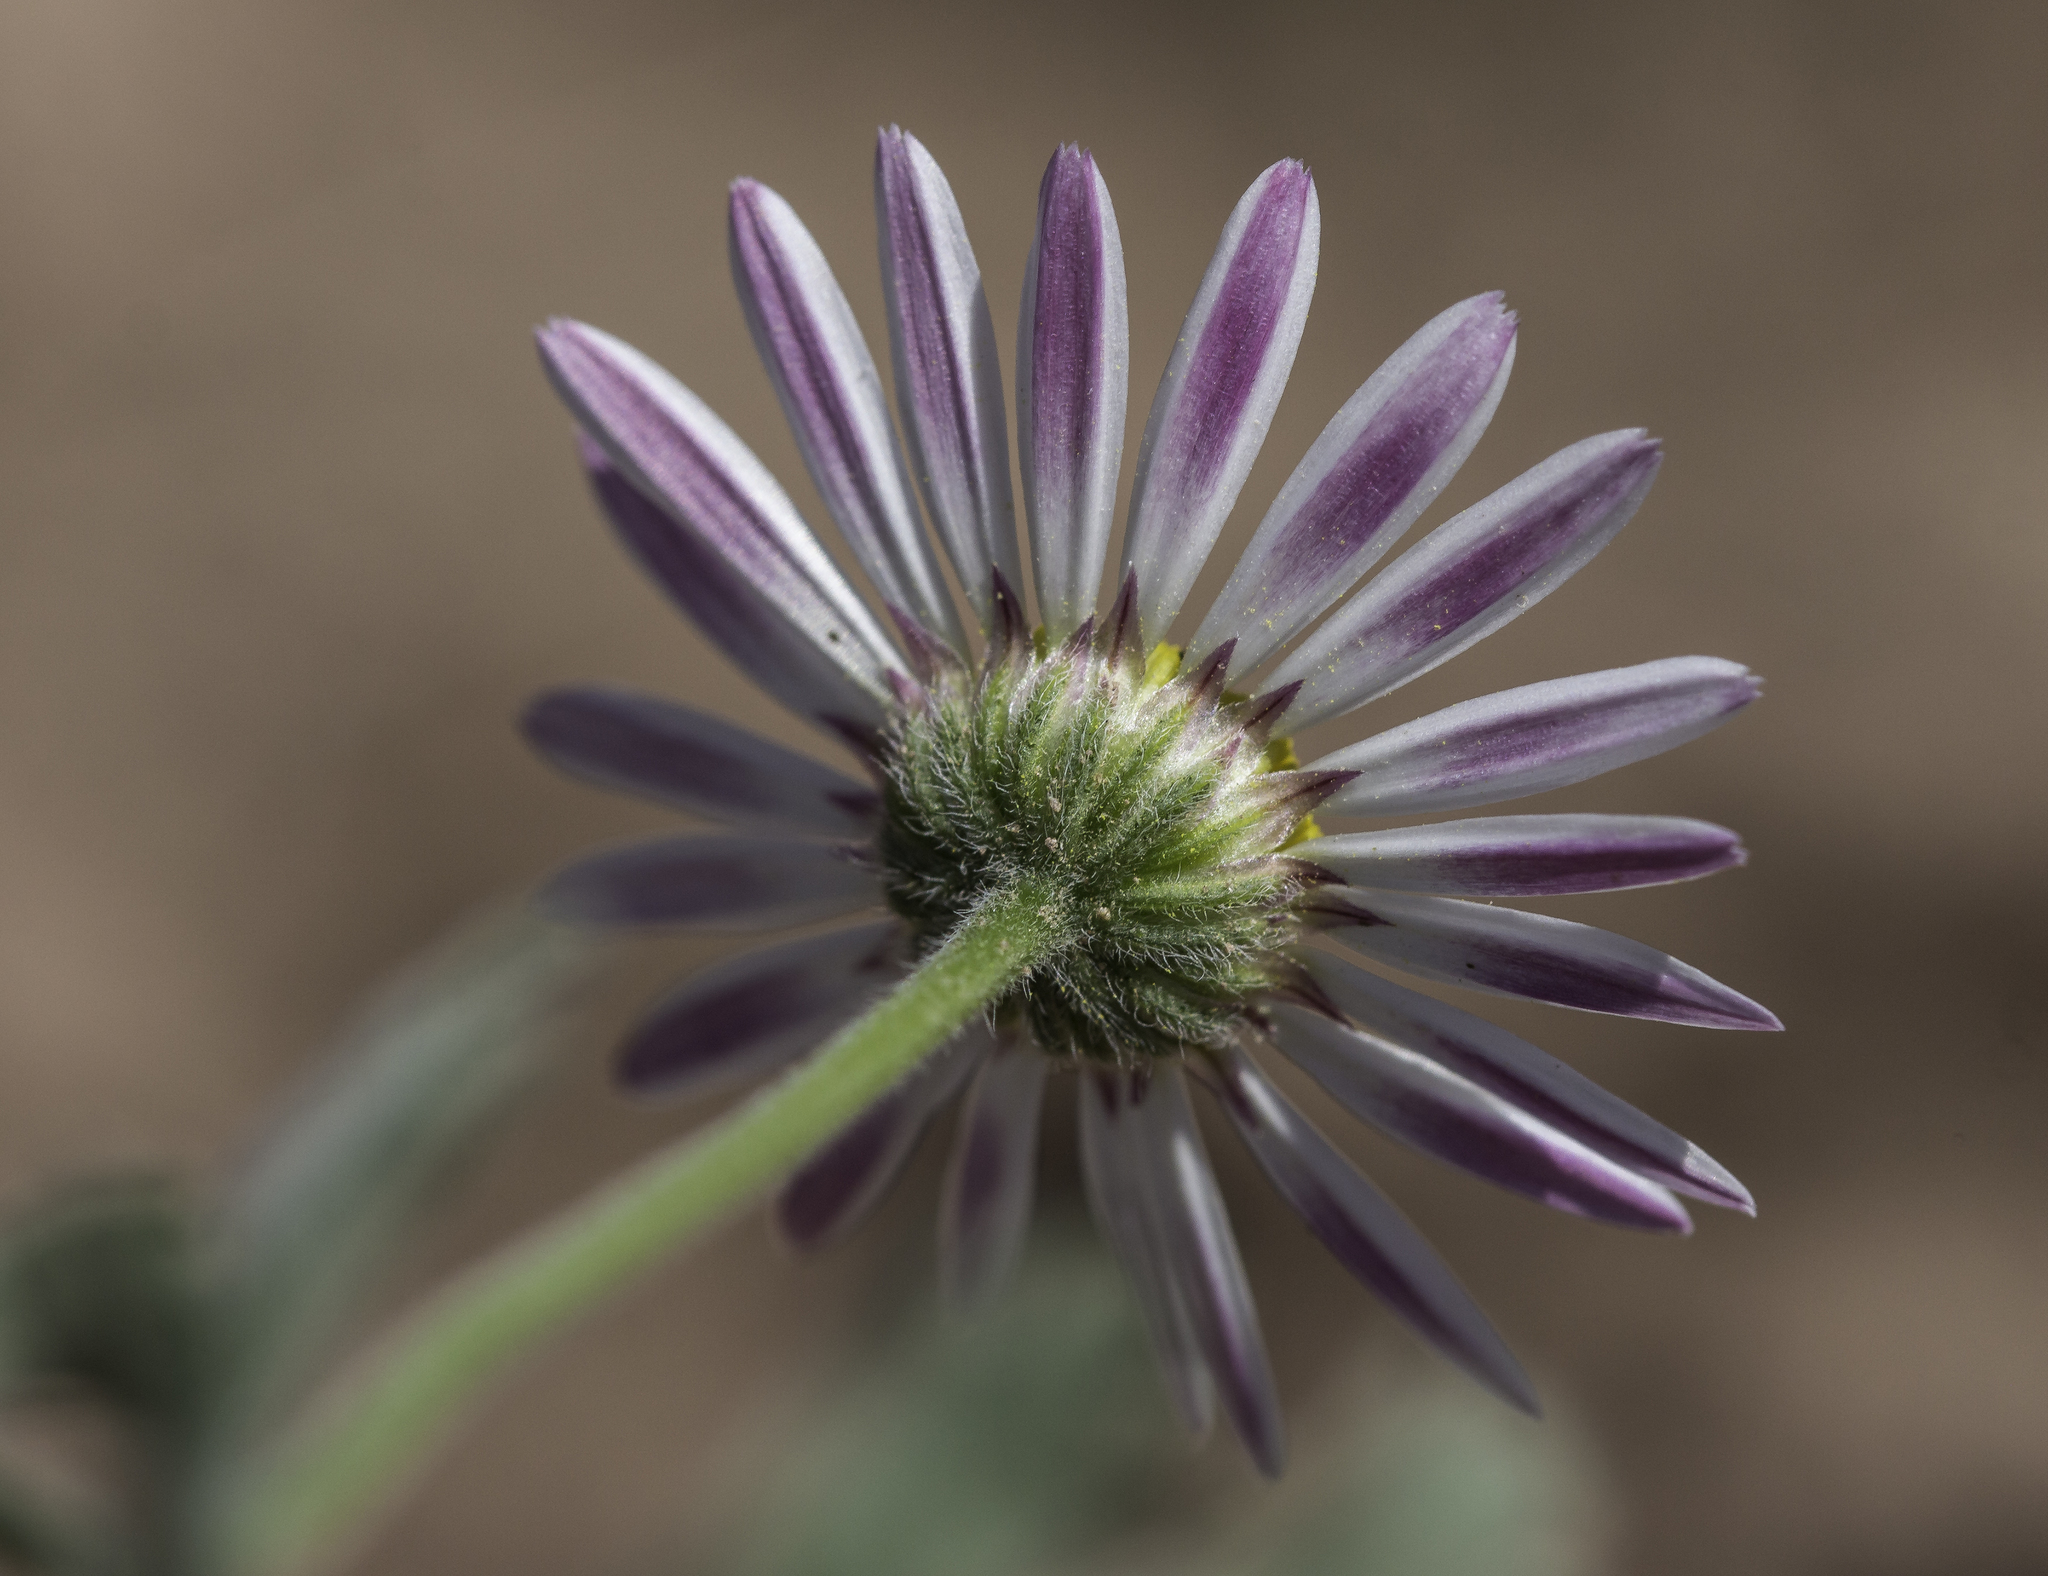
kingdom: Plantae
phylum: Tracheophyta
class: Magnoliopsida
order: Asterales
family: Asteraceae
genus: Aphanostephus
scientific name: Aphanostephus ramosissimus
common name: Plains lazy daisy
